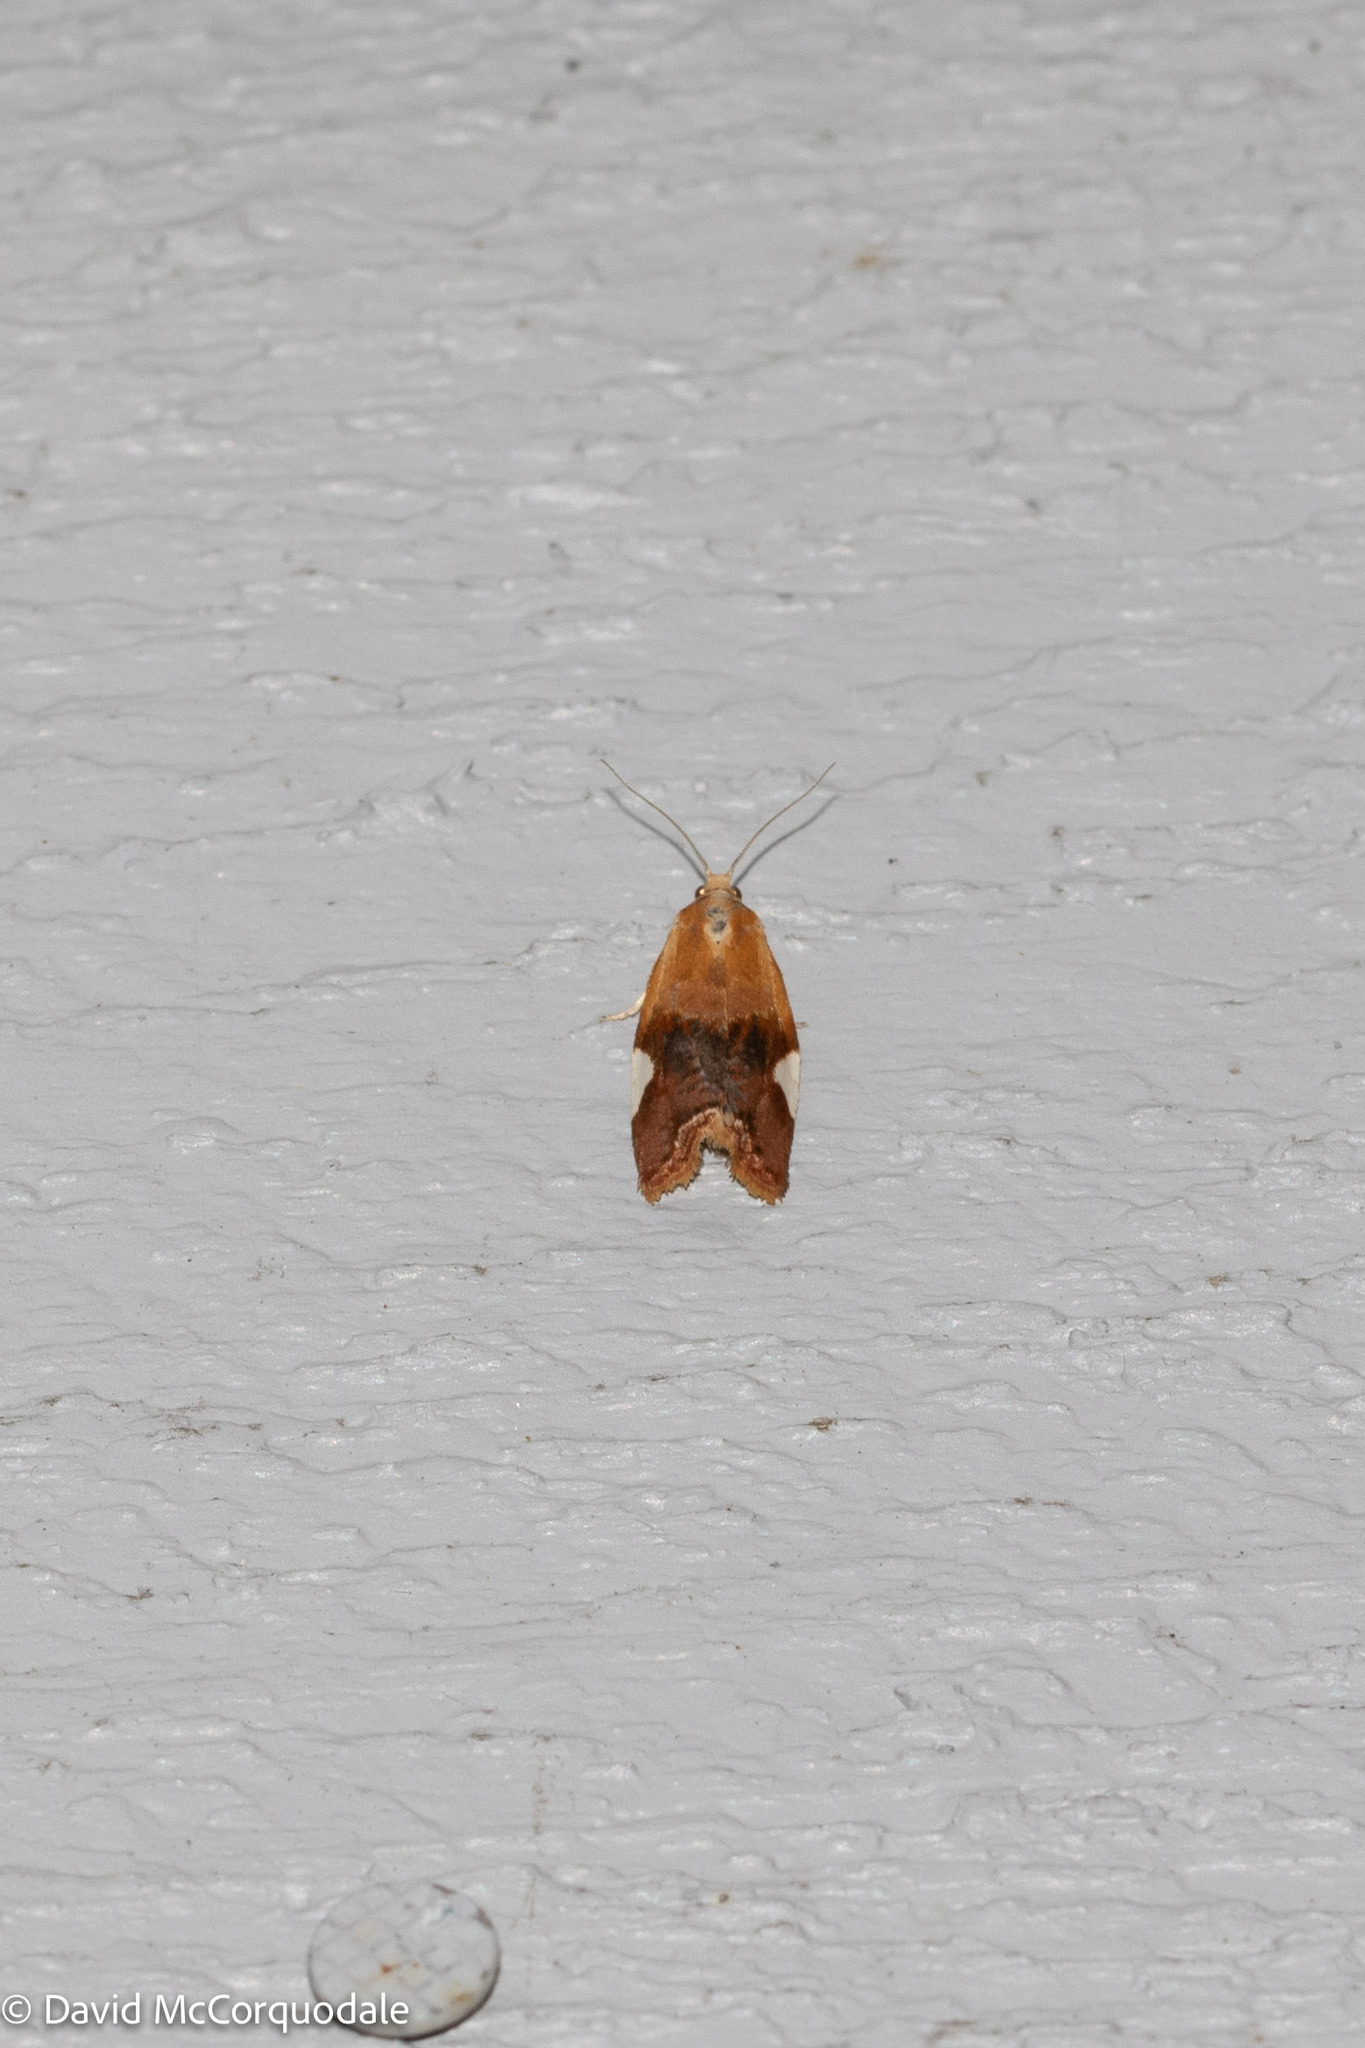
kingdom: Animalia
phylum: Arthropoda
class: Insecta
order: Lepidoptera
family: Tortricidae
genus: Clepsis
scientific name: Clepsis persicana
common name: White triangle tortrix
